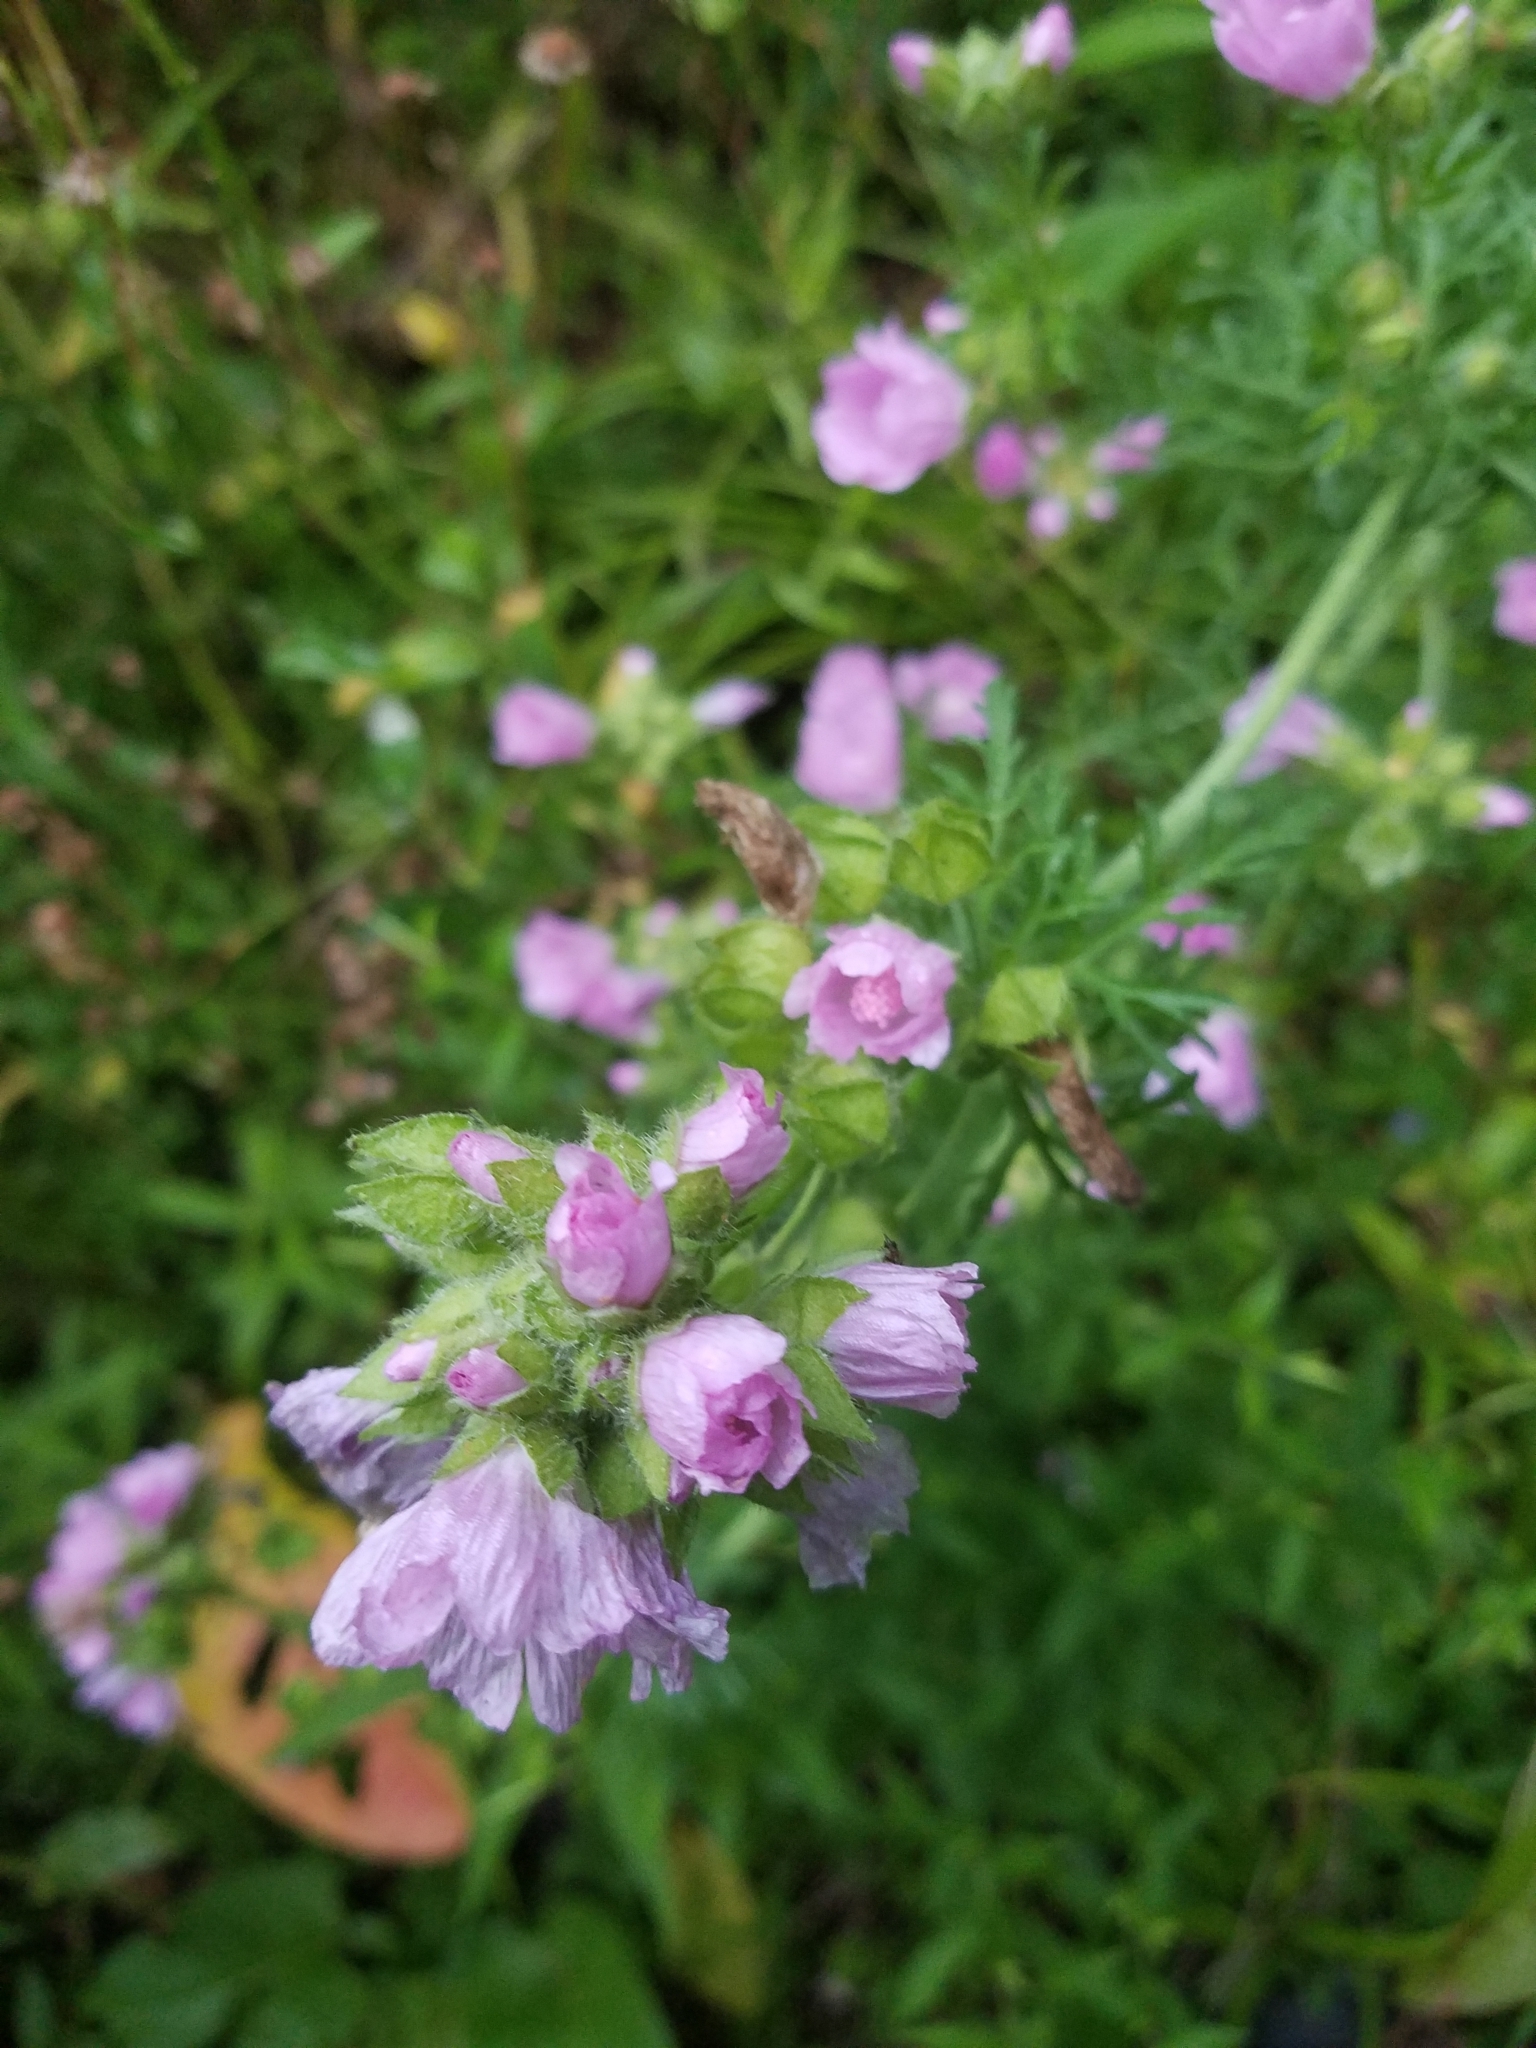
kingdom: Plantae
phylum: Tracheophyta
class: Magnoliopsida
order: Malvales
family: Malvaceae
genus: Malva
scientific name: Malva moschata
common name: Musk mallow
